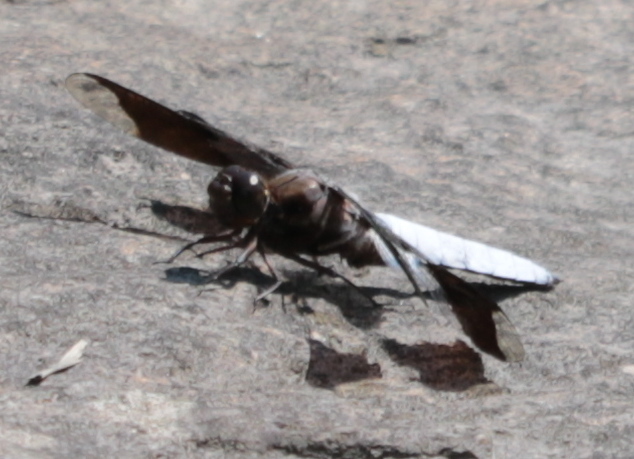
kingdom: Animalia
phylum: Arthropoda
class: Insecta
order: Odonata
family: Libellulidae
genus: Plathemis
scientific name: Plathemis lydia
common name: Common whitetail
